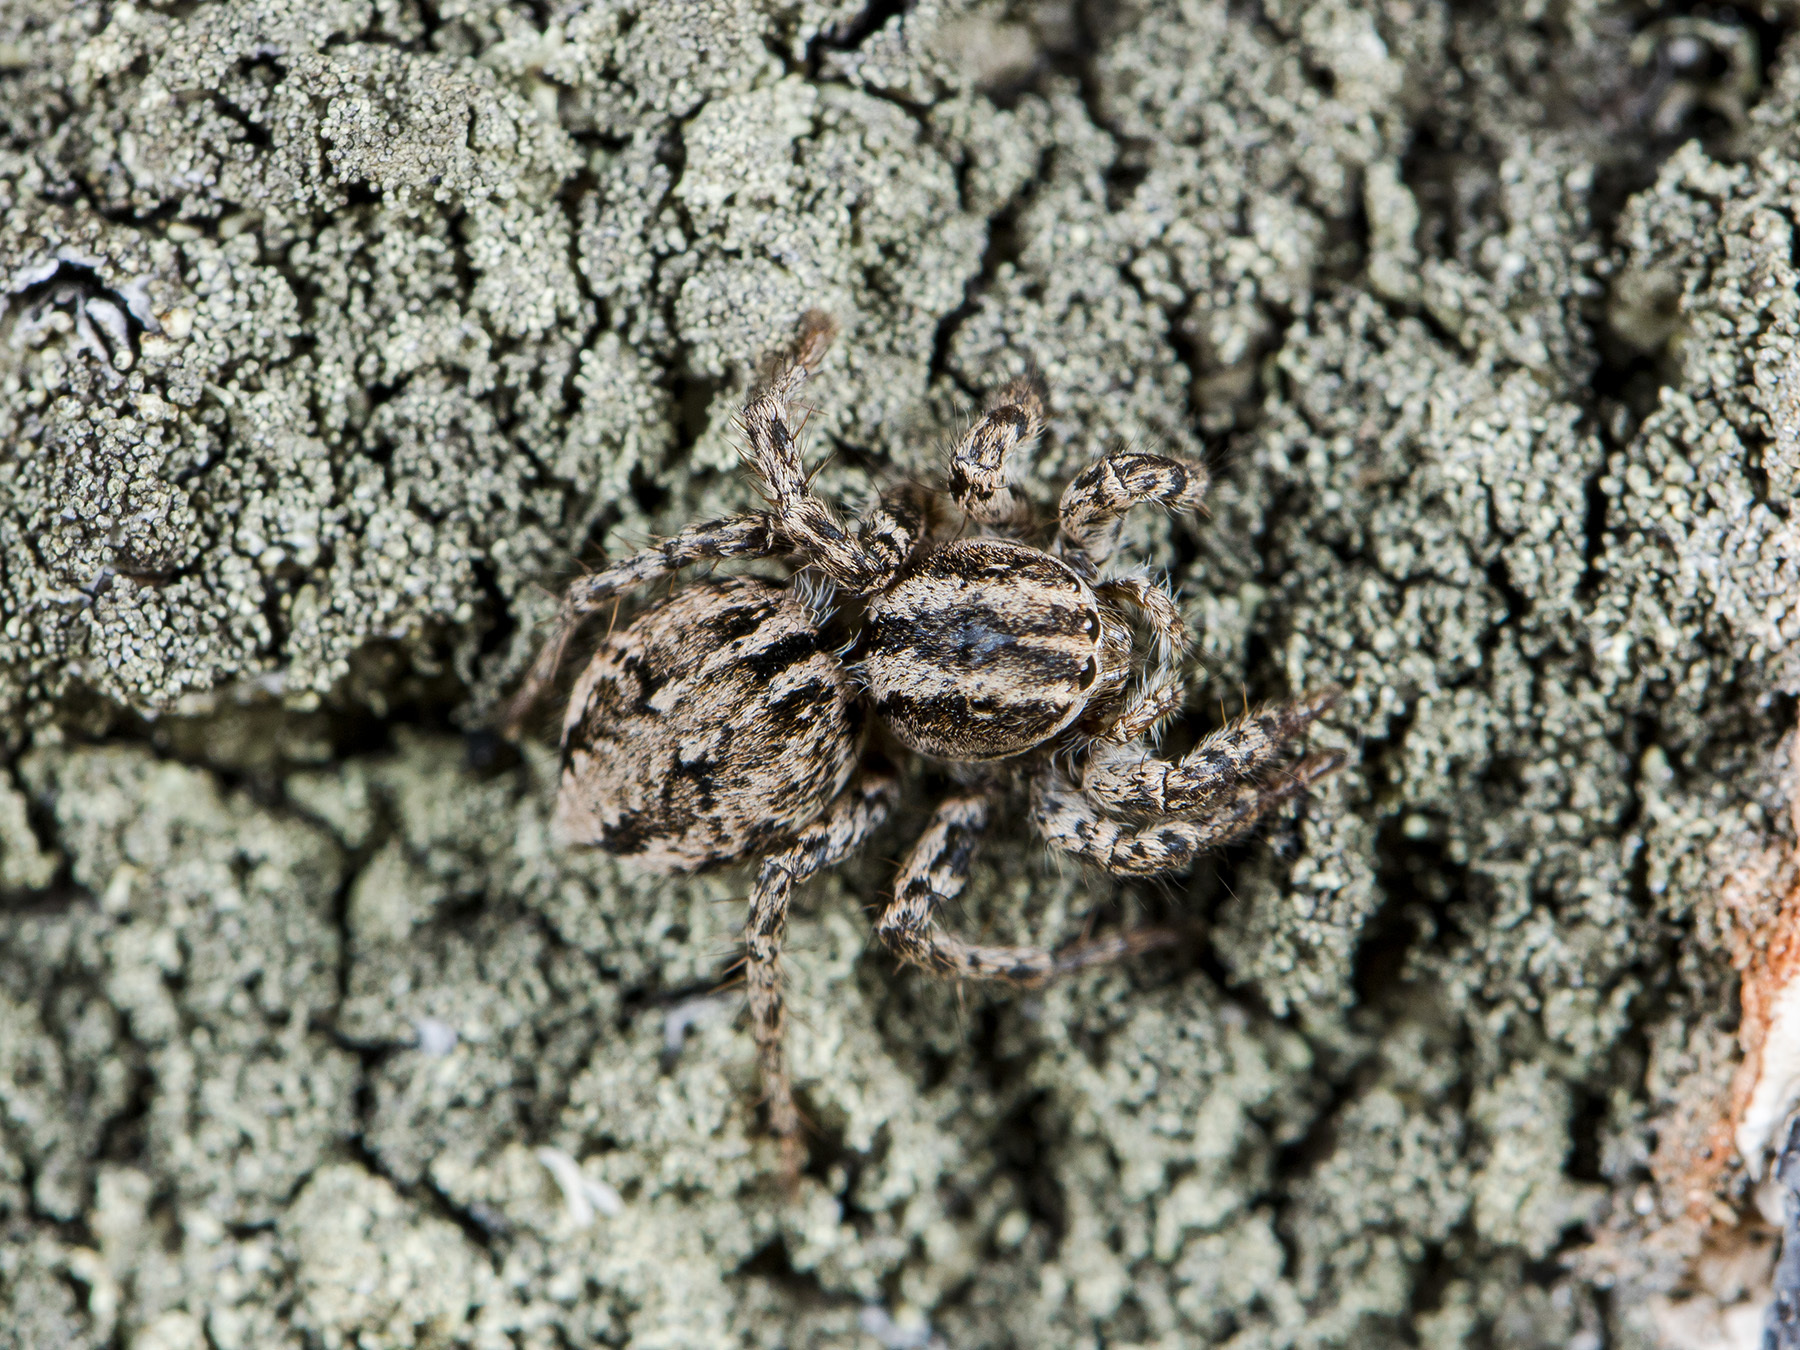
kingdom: Animalia
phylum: Arthropoda
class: Arachnida
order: Araneae
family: Salticidae
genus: Aelurillus
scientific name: Aelurillus m-nigrum
